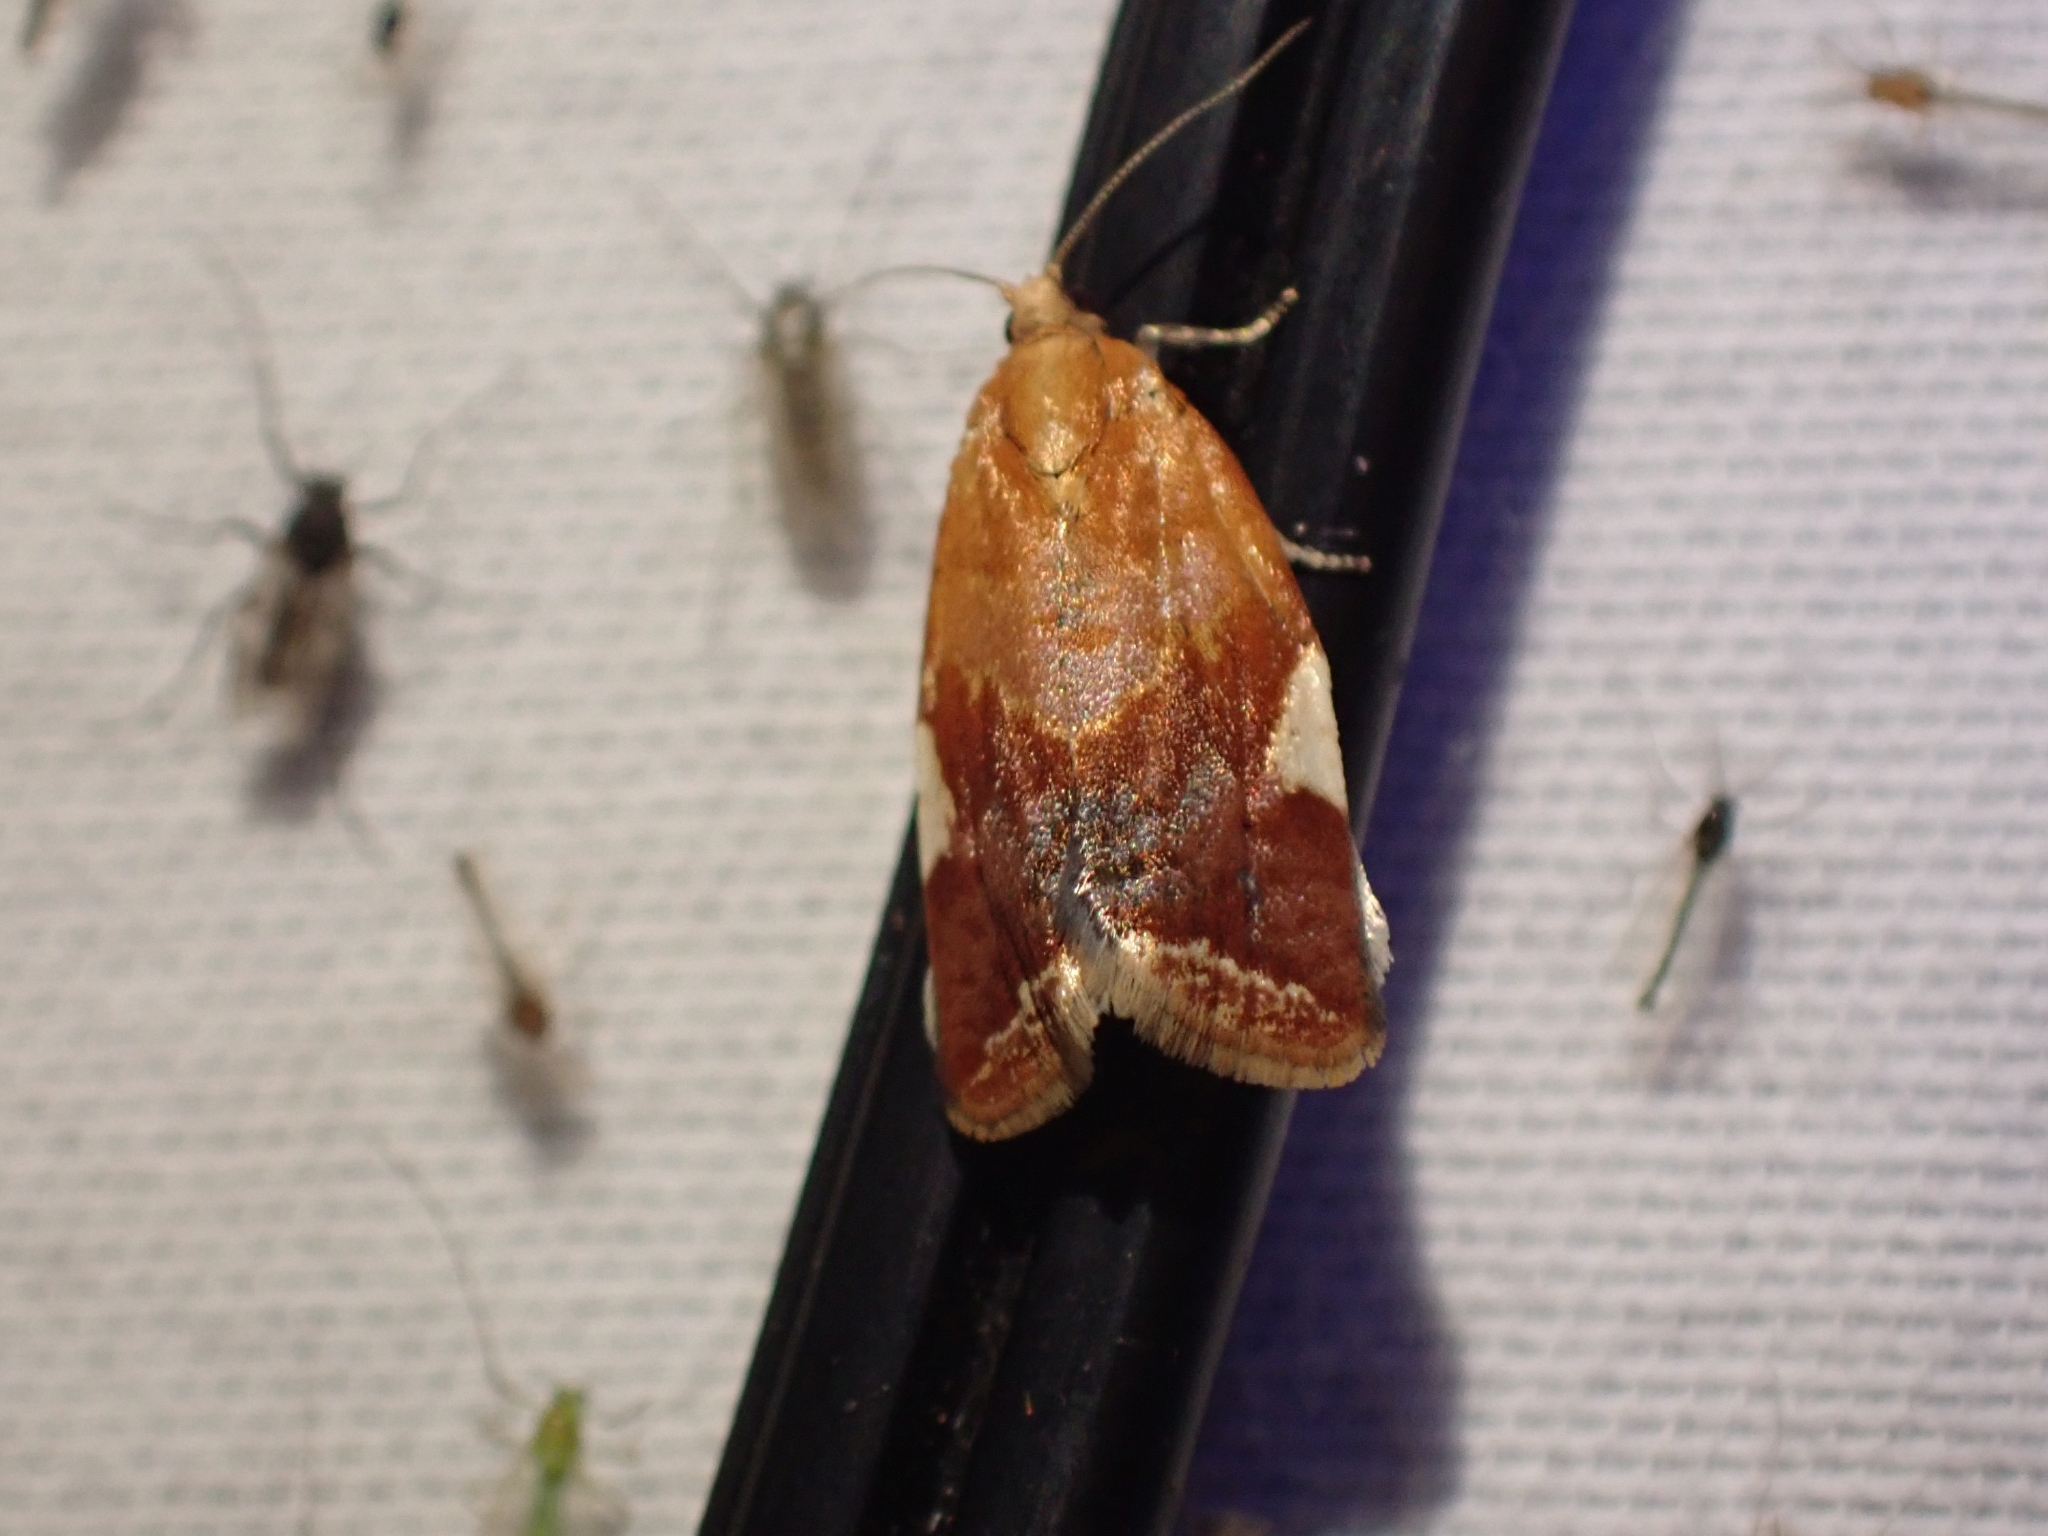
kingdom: Animalia
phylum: Arthropoda
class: Insecta
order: Lepidoptera
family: Tortricidae
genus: Clepsis
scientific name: Clepsis persicana
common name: White triangle tortrix
